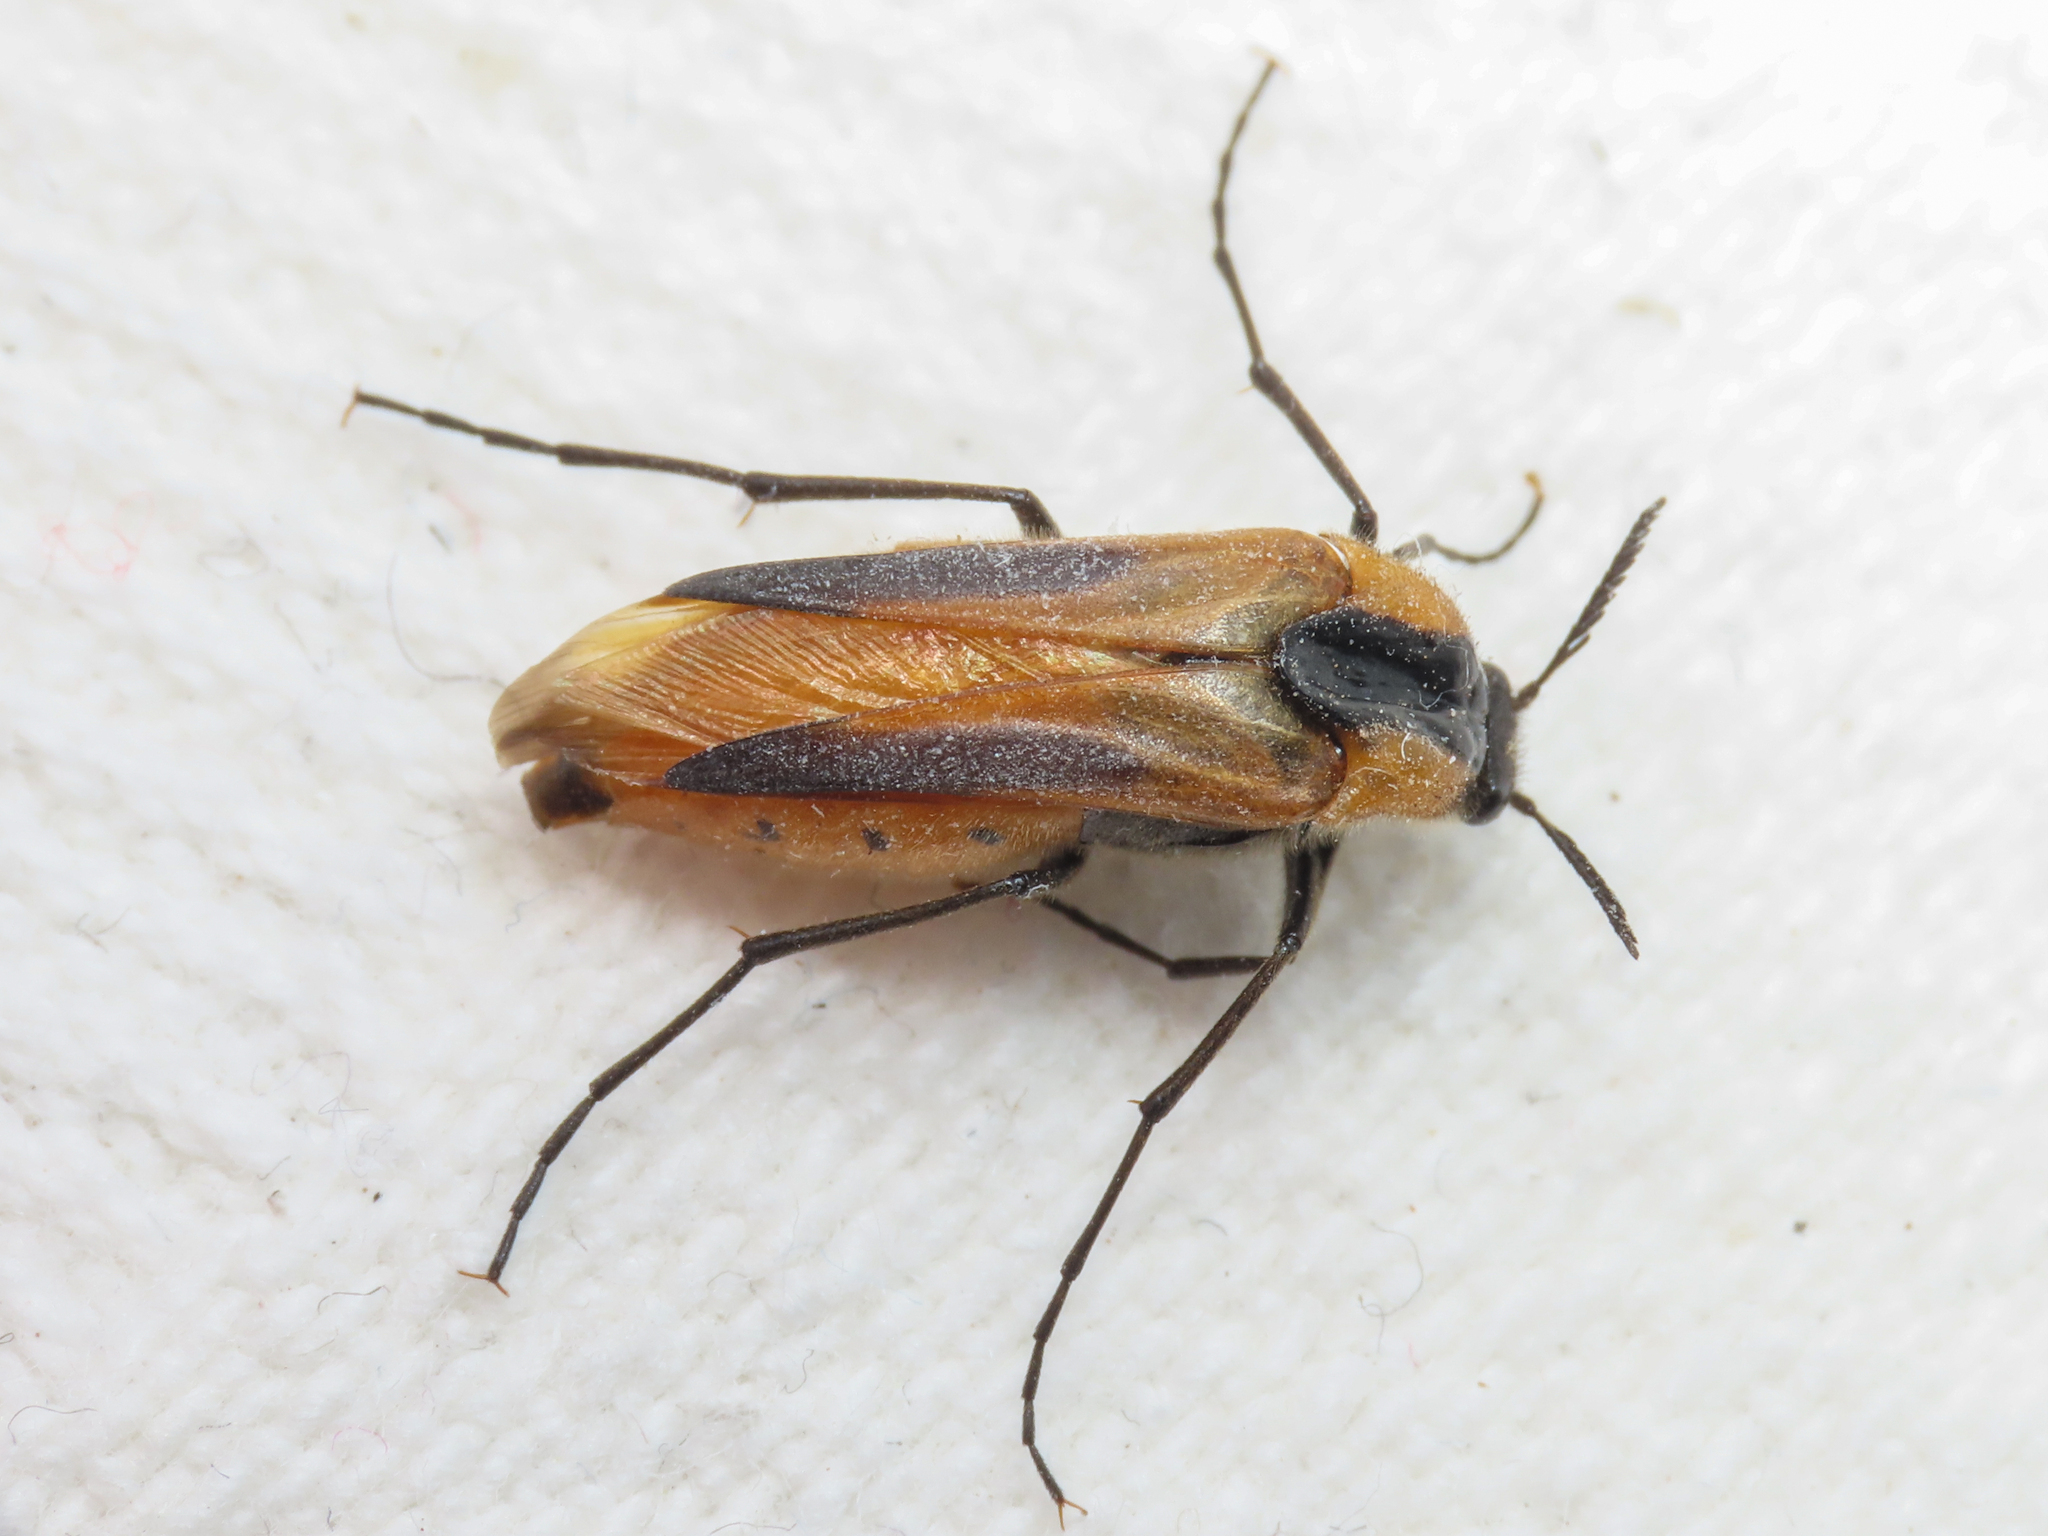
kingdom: Animalia
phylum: Arthropoda
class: Insecta
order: Coleoptera
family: Ripiphoridae
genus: Metoecus
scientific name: Metoecus paradoxus
